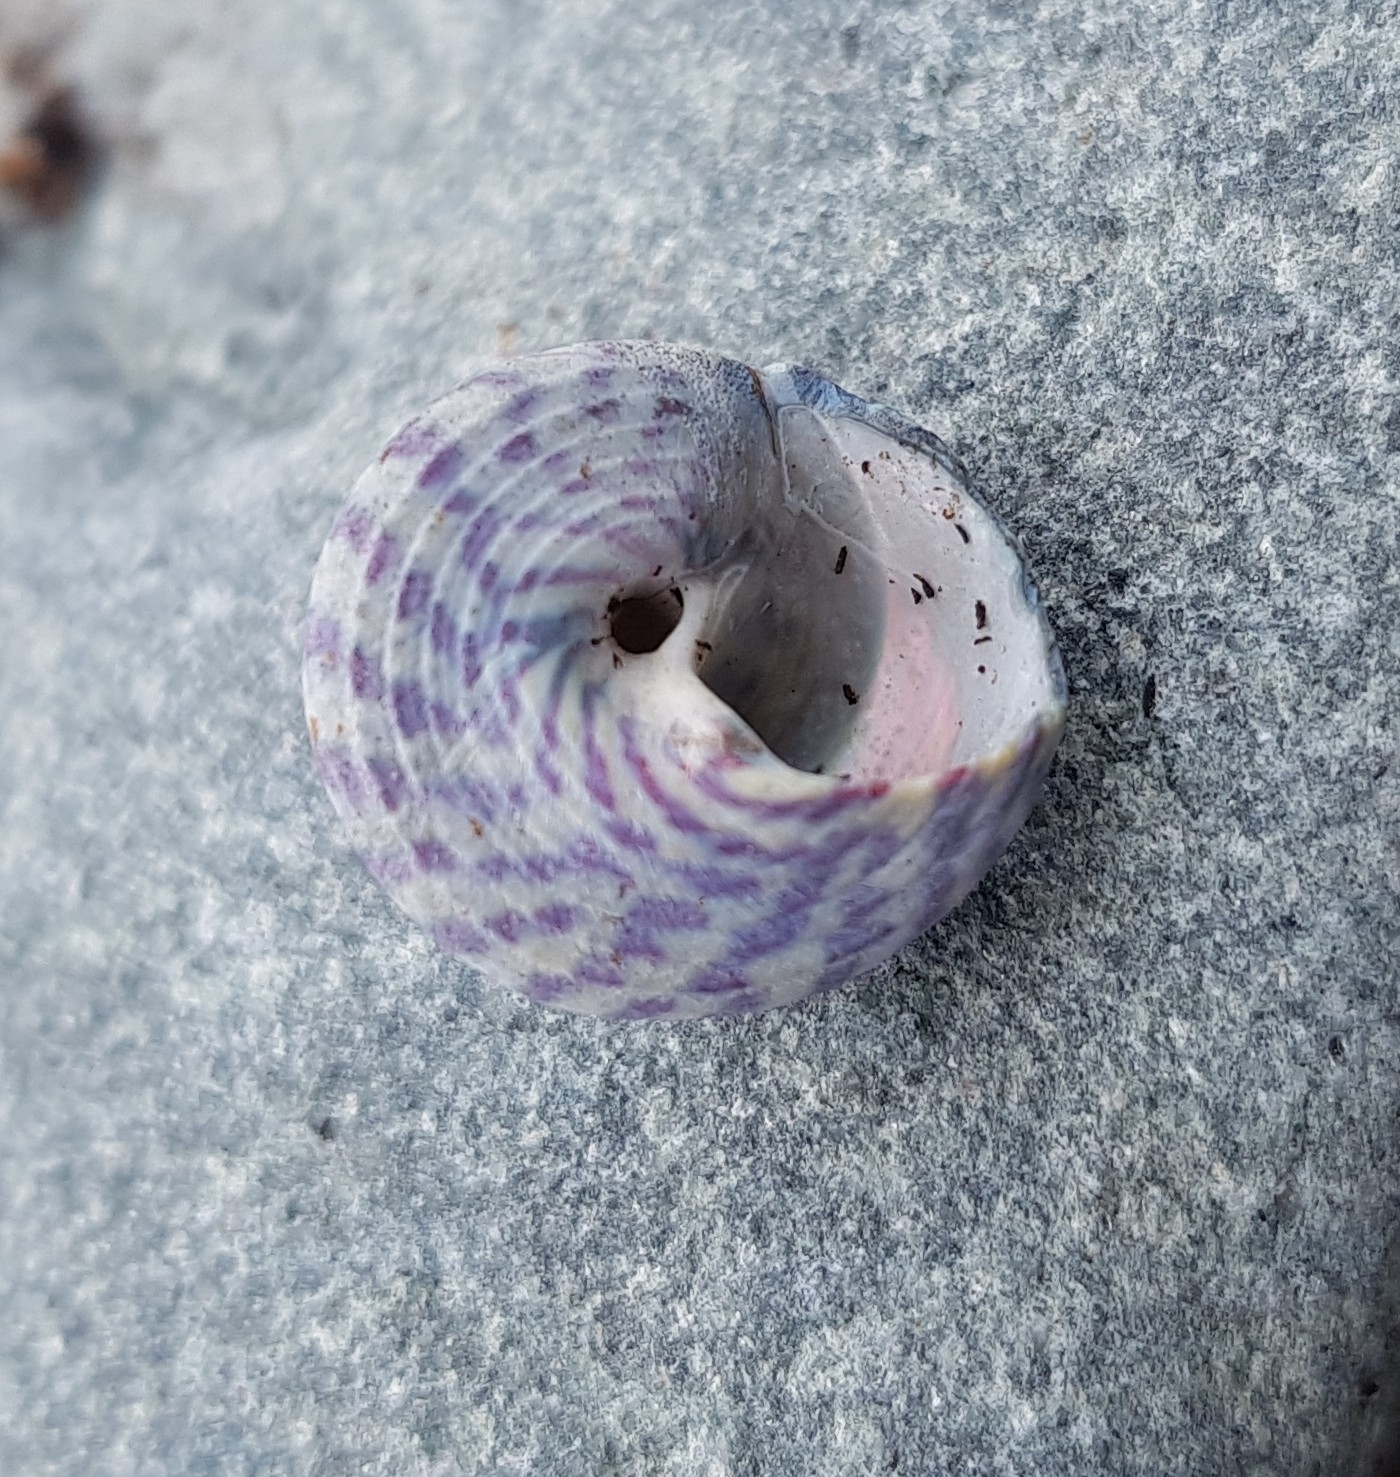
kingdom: Animalia
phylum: Mollusca
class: Gastropoda
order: Trochida
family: Trochidae
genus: Steromphala
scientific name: Steromphala umbilicalis
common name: Flat top shell
